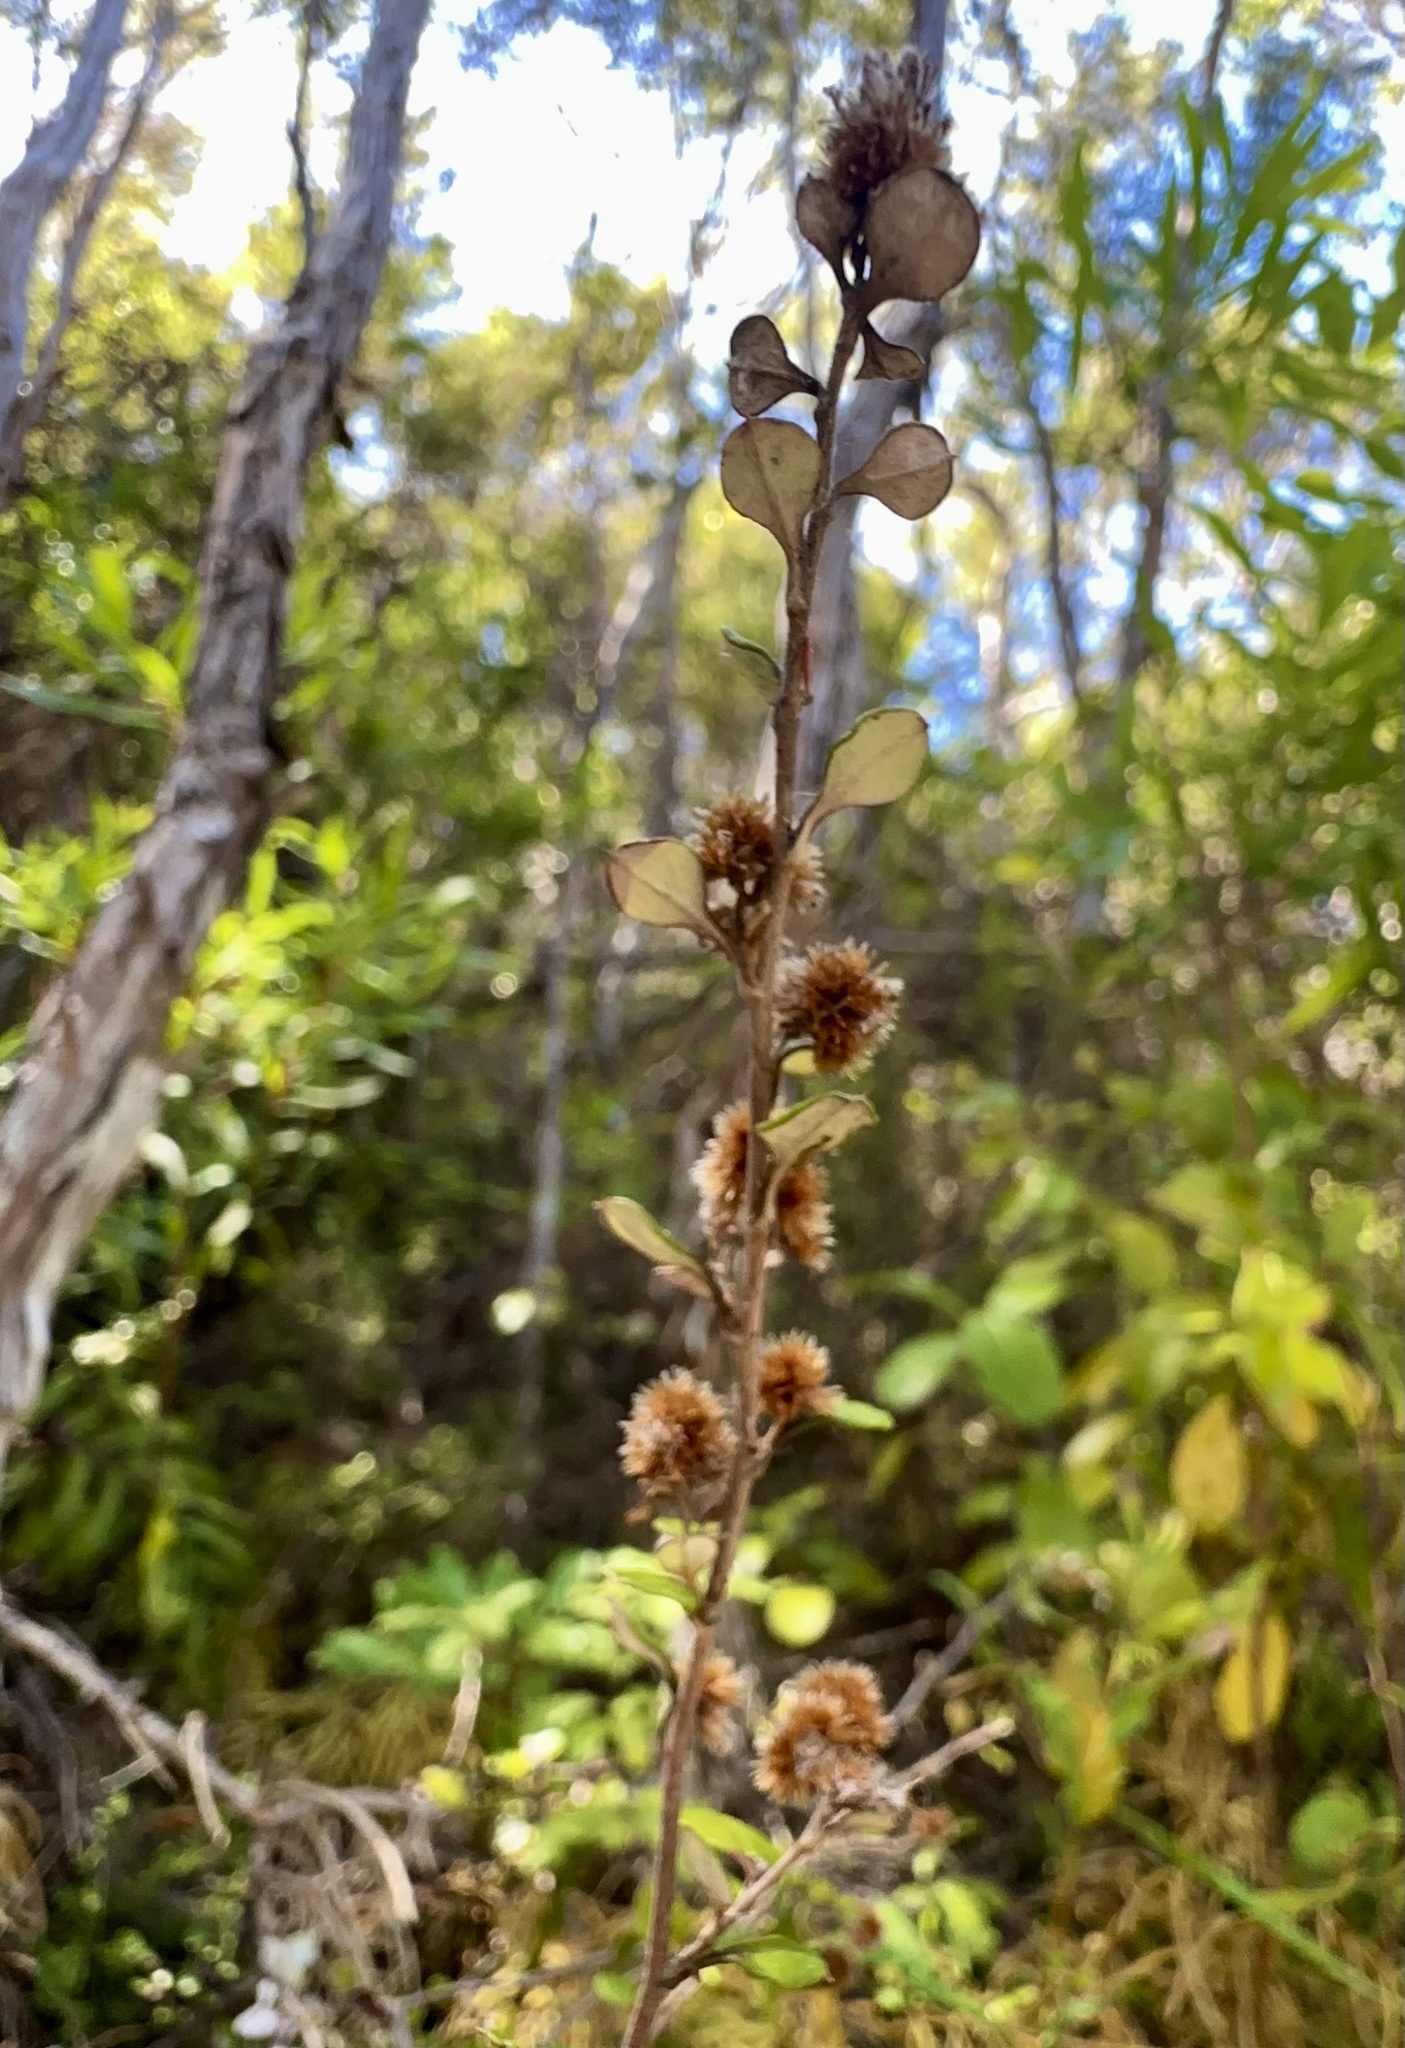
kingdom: Plantae
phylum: Tracheophyta
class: Magnoliopsida
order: Asterales
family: Asteraceae
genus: Ozothamnus
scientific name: Ozothamnus glomeratus
